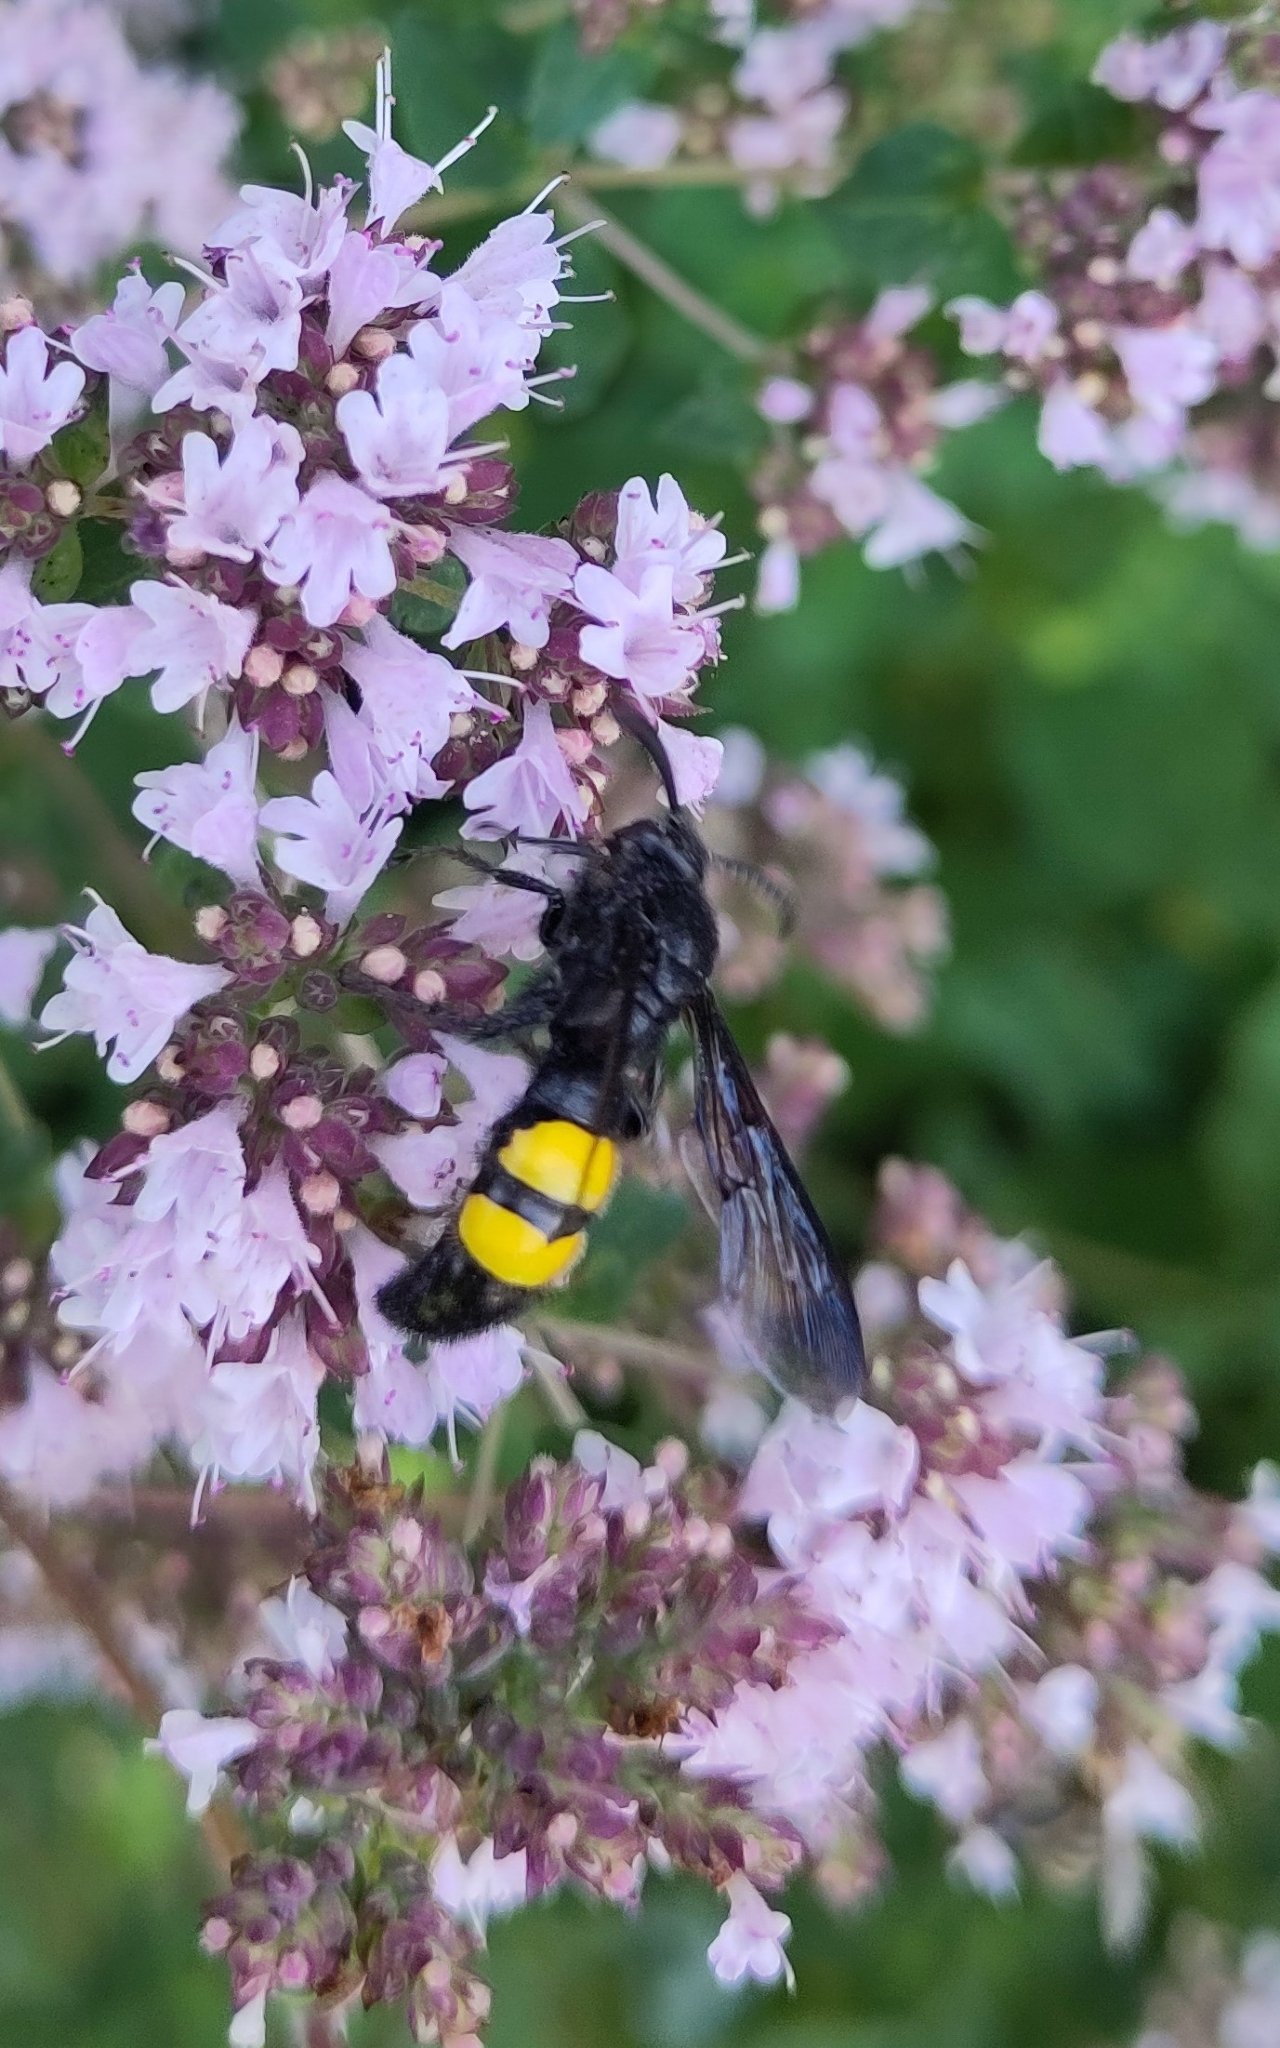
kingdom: Animalia
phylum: Arthropoda
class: Insecta
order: Hymenoptera
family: Scoliidae
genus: Scolia
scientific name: Scolia hirta
